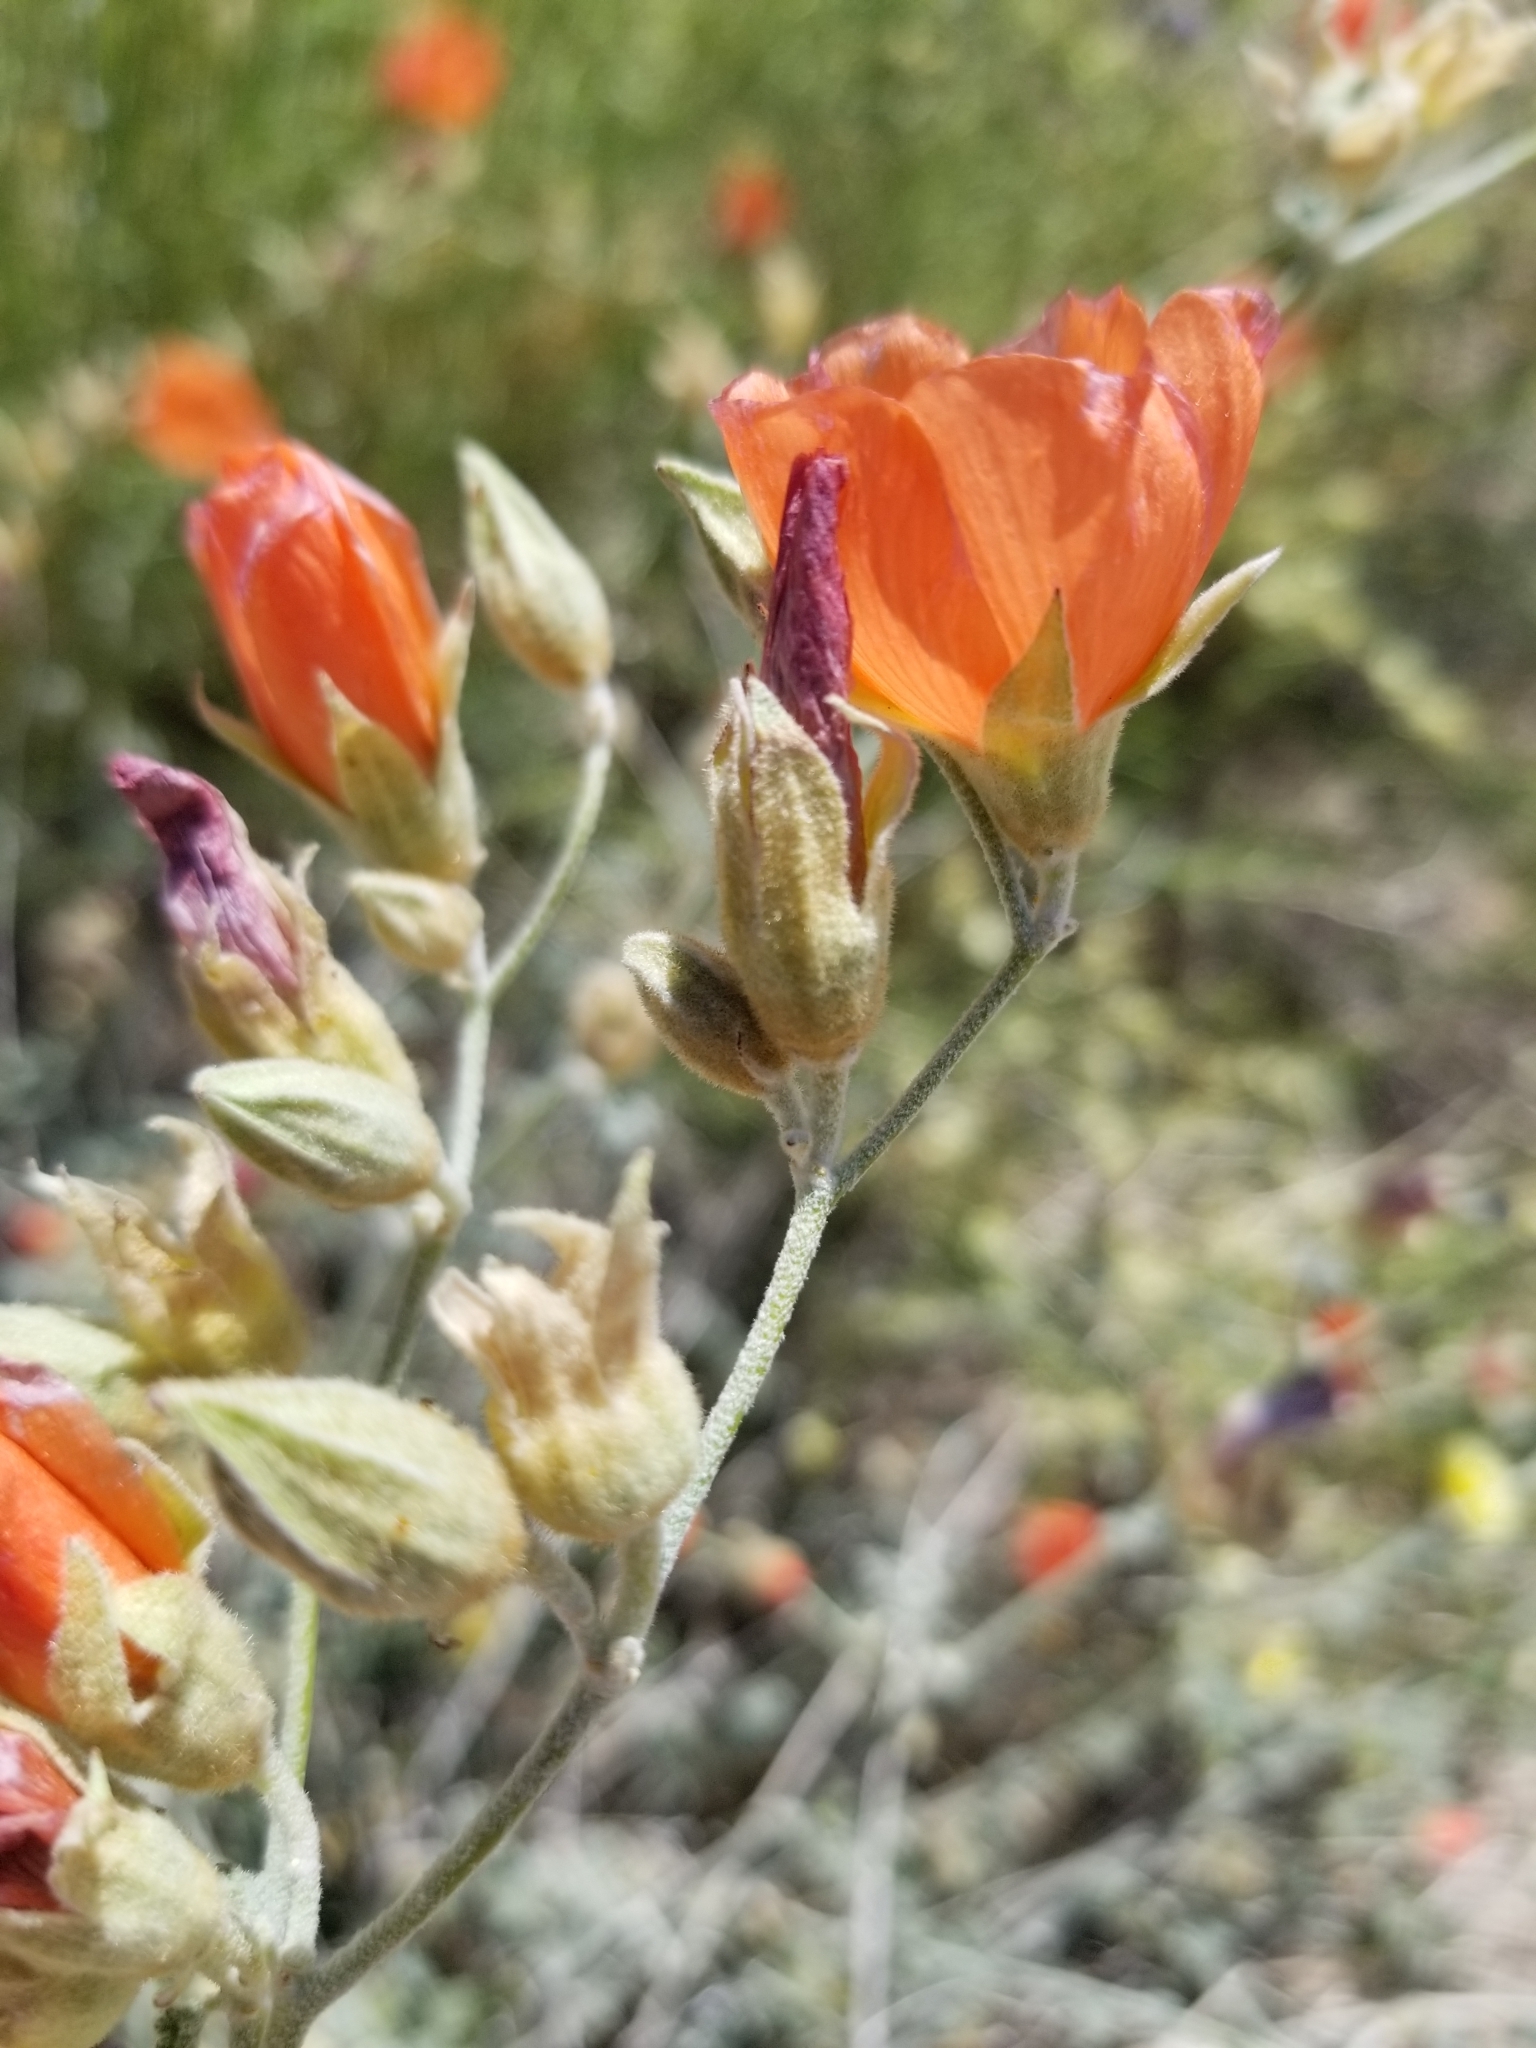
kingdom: Plantae
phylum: Tracheophyta
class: Magnoliopsida
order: Malvales
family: Malvaceae
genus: Sphaeralcea
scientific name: Sphaeralcea ambigua
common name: Apricot globe-mallow
